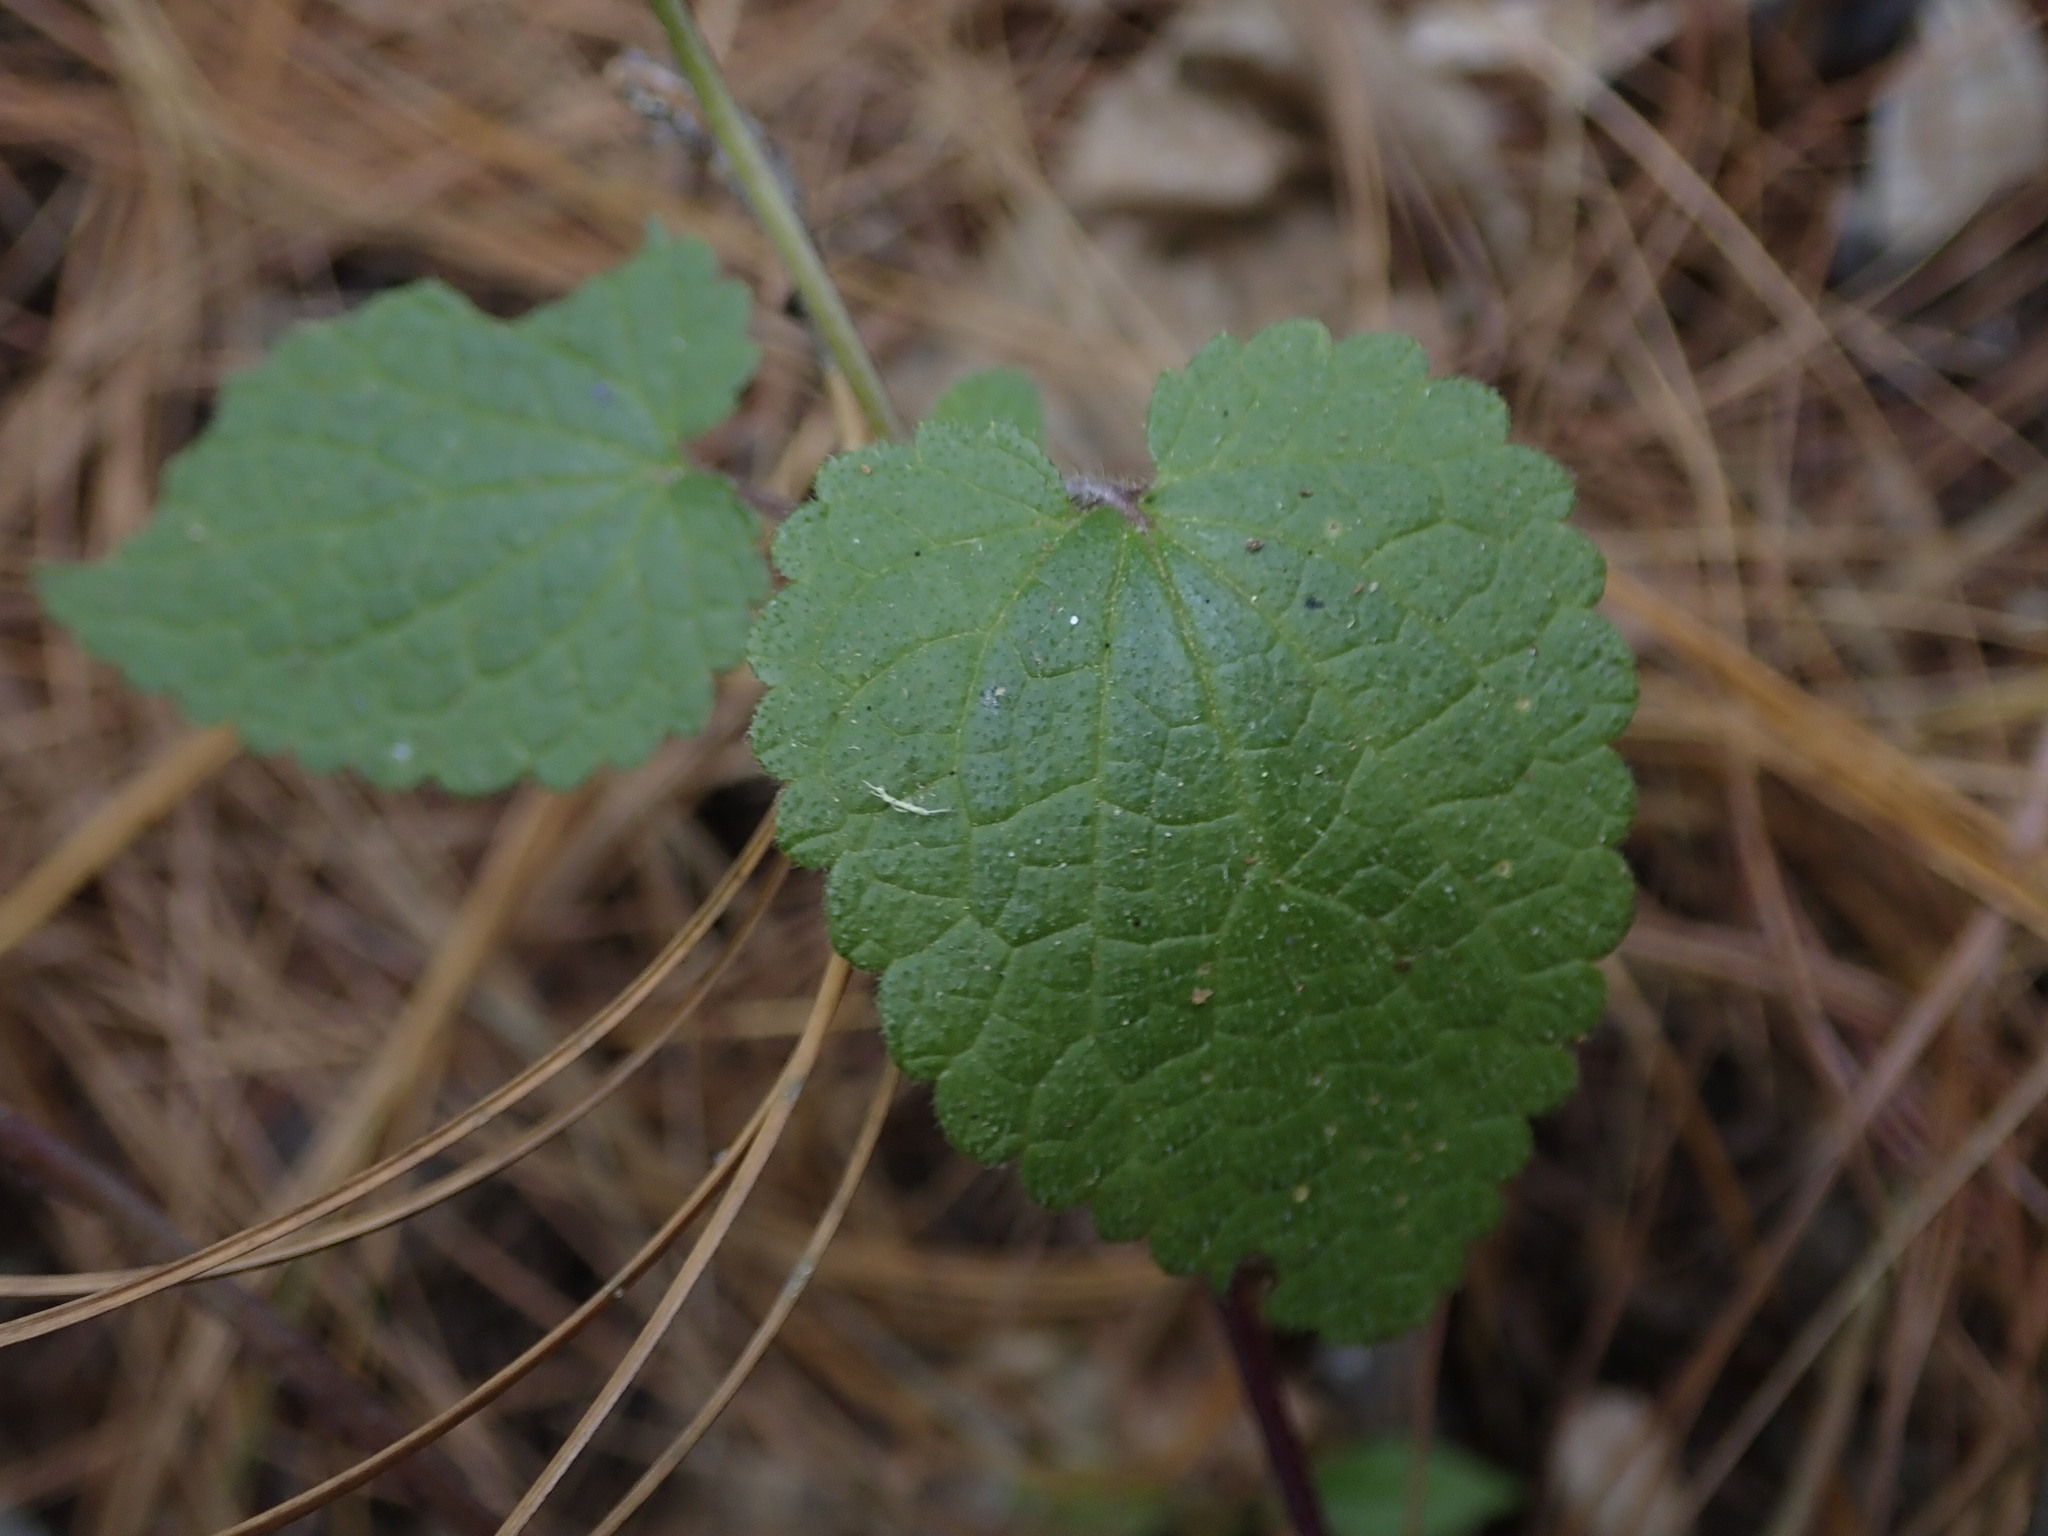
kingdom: Plantae
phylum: Tracheophyta
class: Magnoliopsida
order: Lamiales
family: Lamiaceae
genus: Stachys
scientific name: Stachys coccinea
